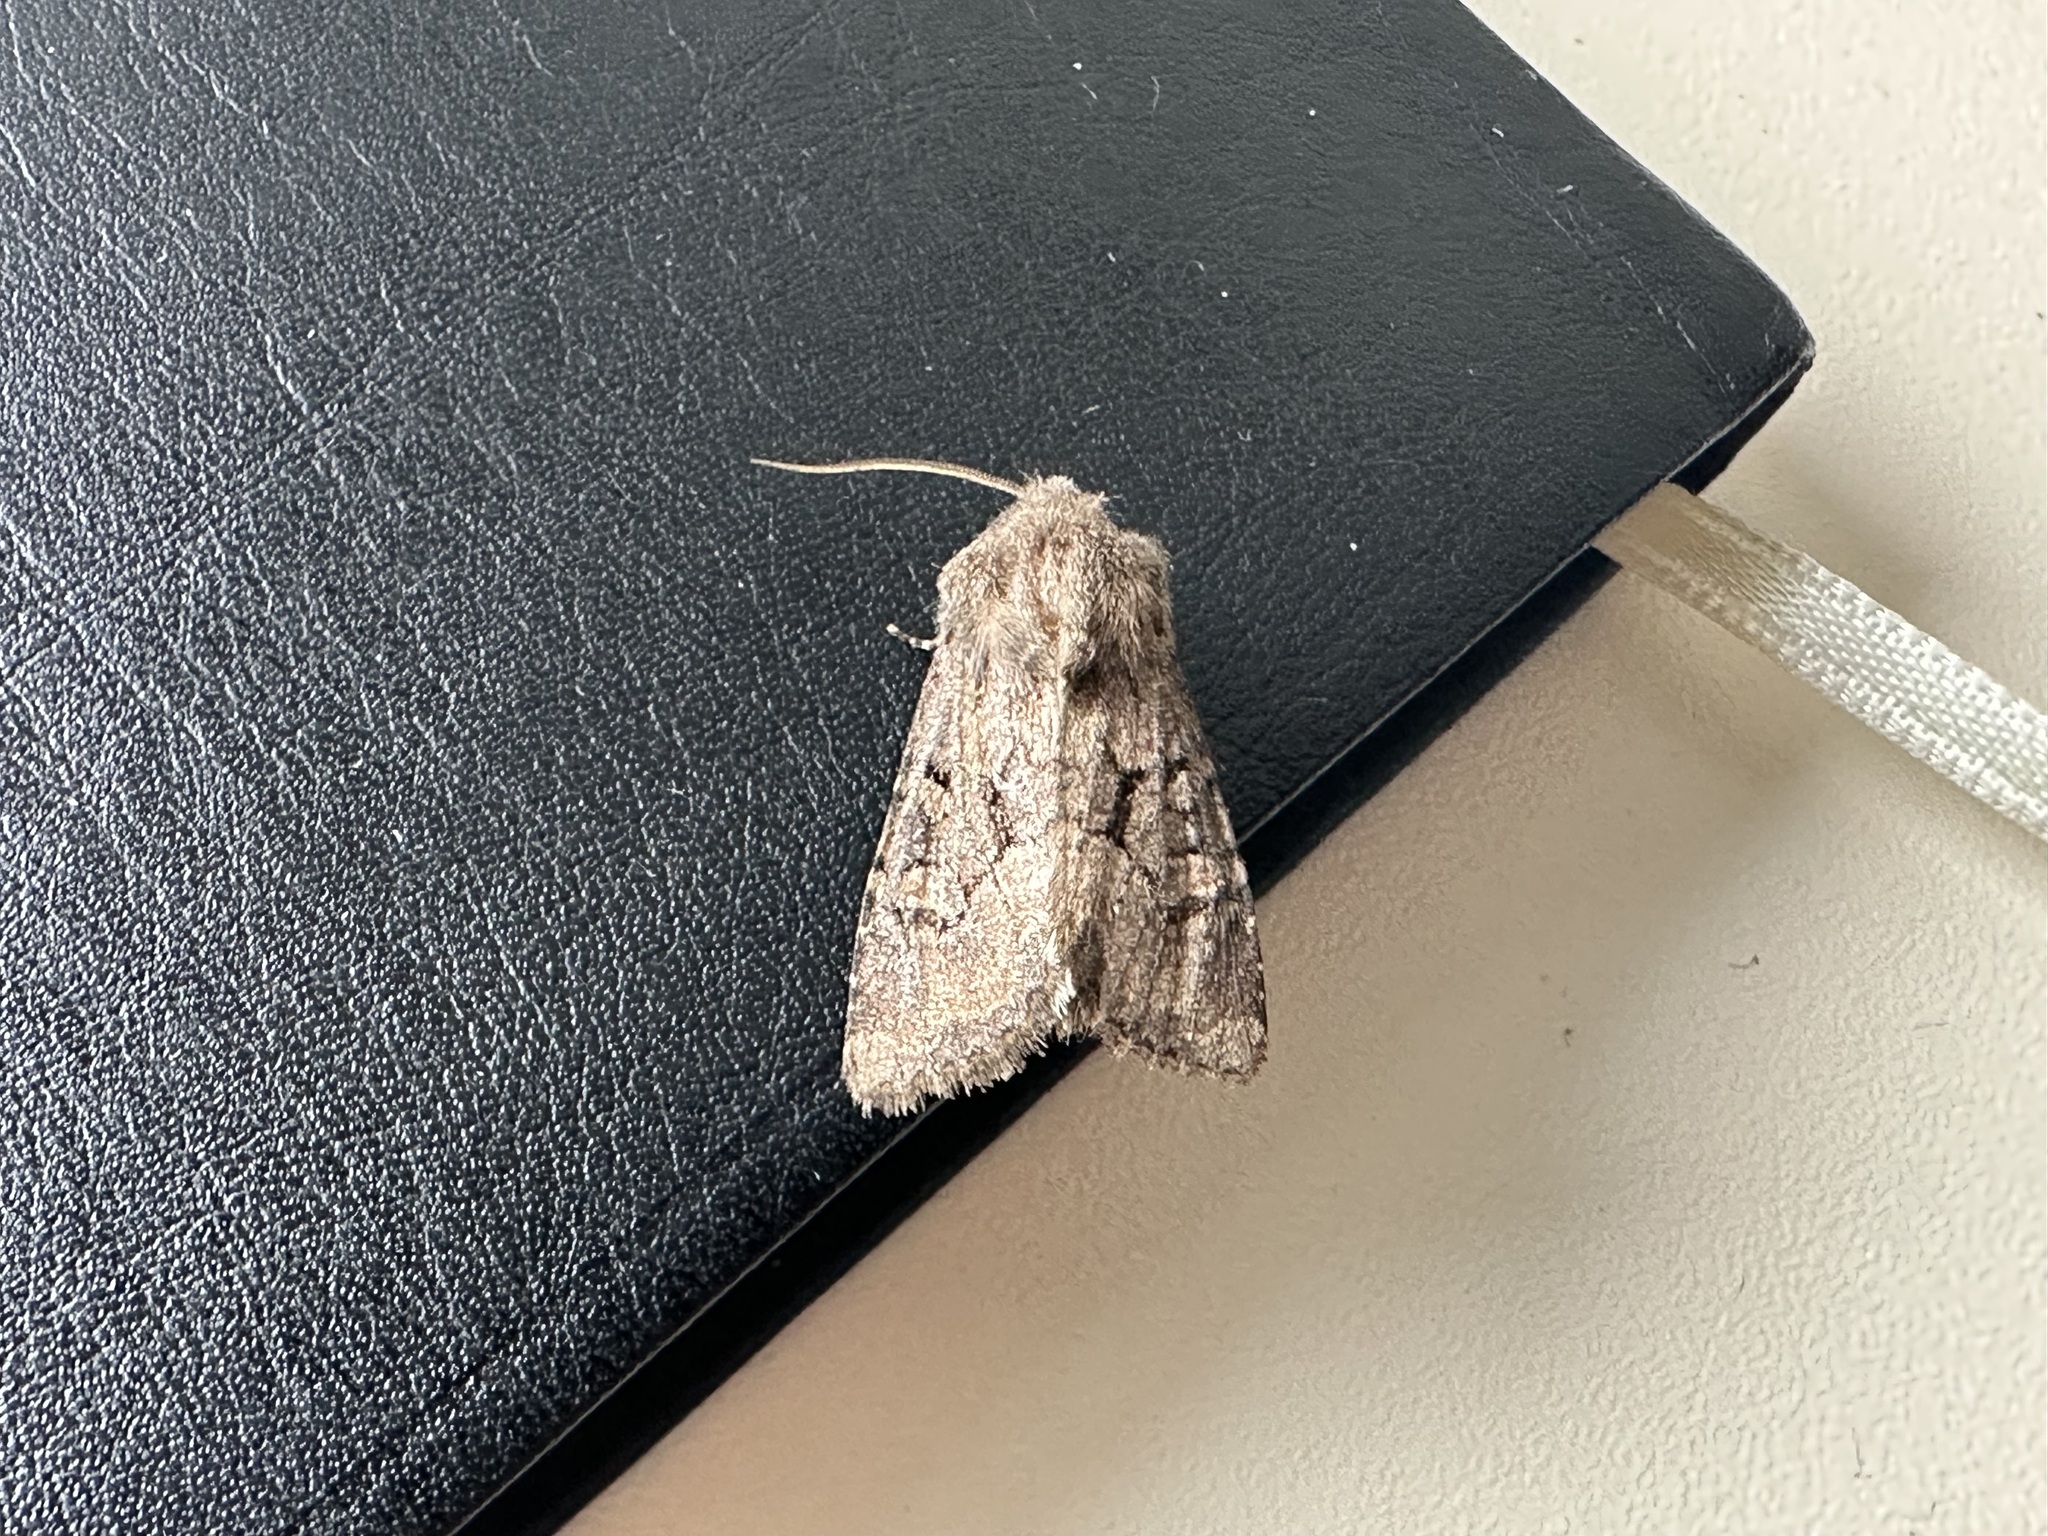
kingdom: Animalia
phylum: Arthropoda
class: Insecta
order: Lepidoptera
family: Noctuidae
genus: Luperina
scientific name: Luperina testacea
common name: Flounced rustic
